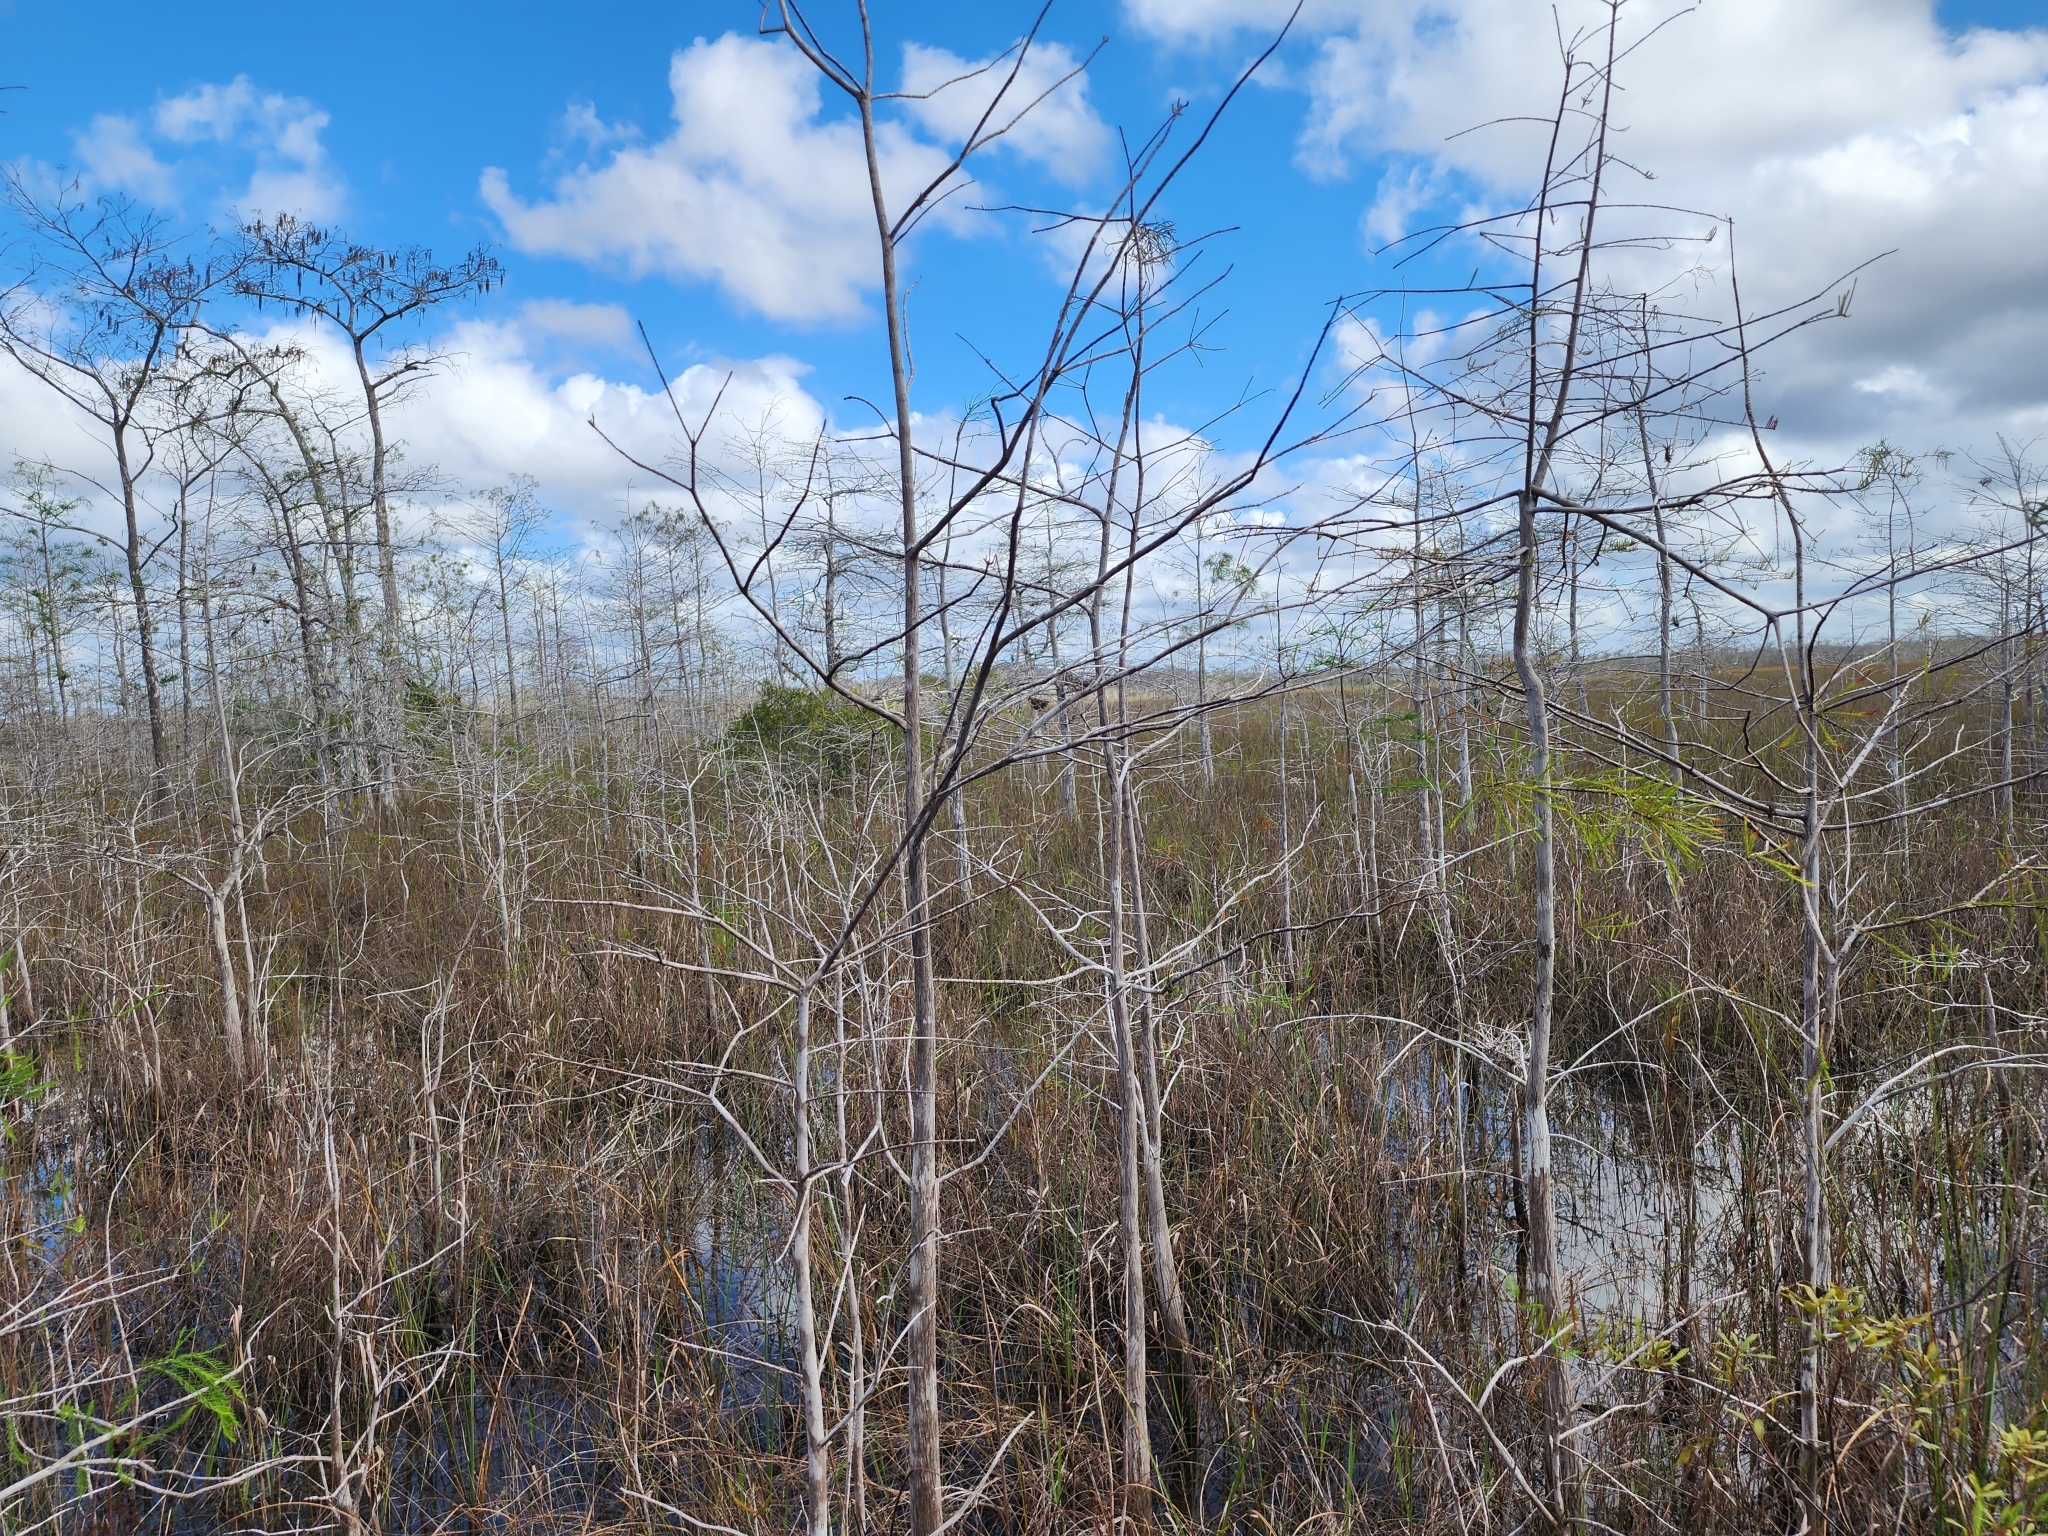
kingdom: Plantae
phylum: Tracheophyta
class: Pinopsida
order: Pinales
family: Cupressaceae
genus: Taxodium
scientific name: Taxodium distichum
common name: Bald cypress
